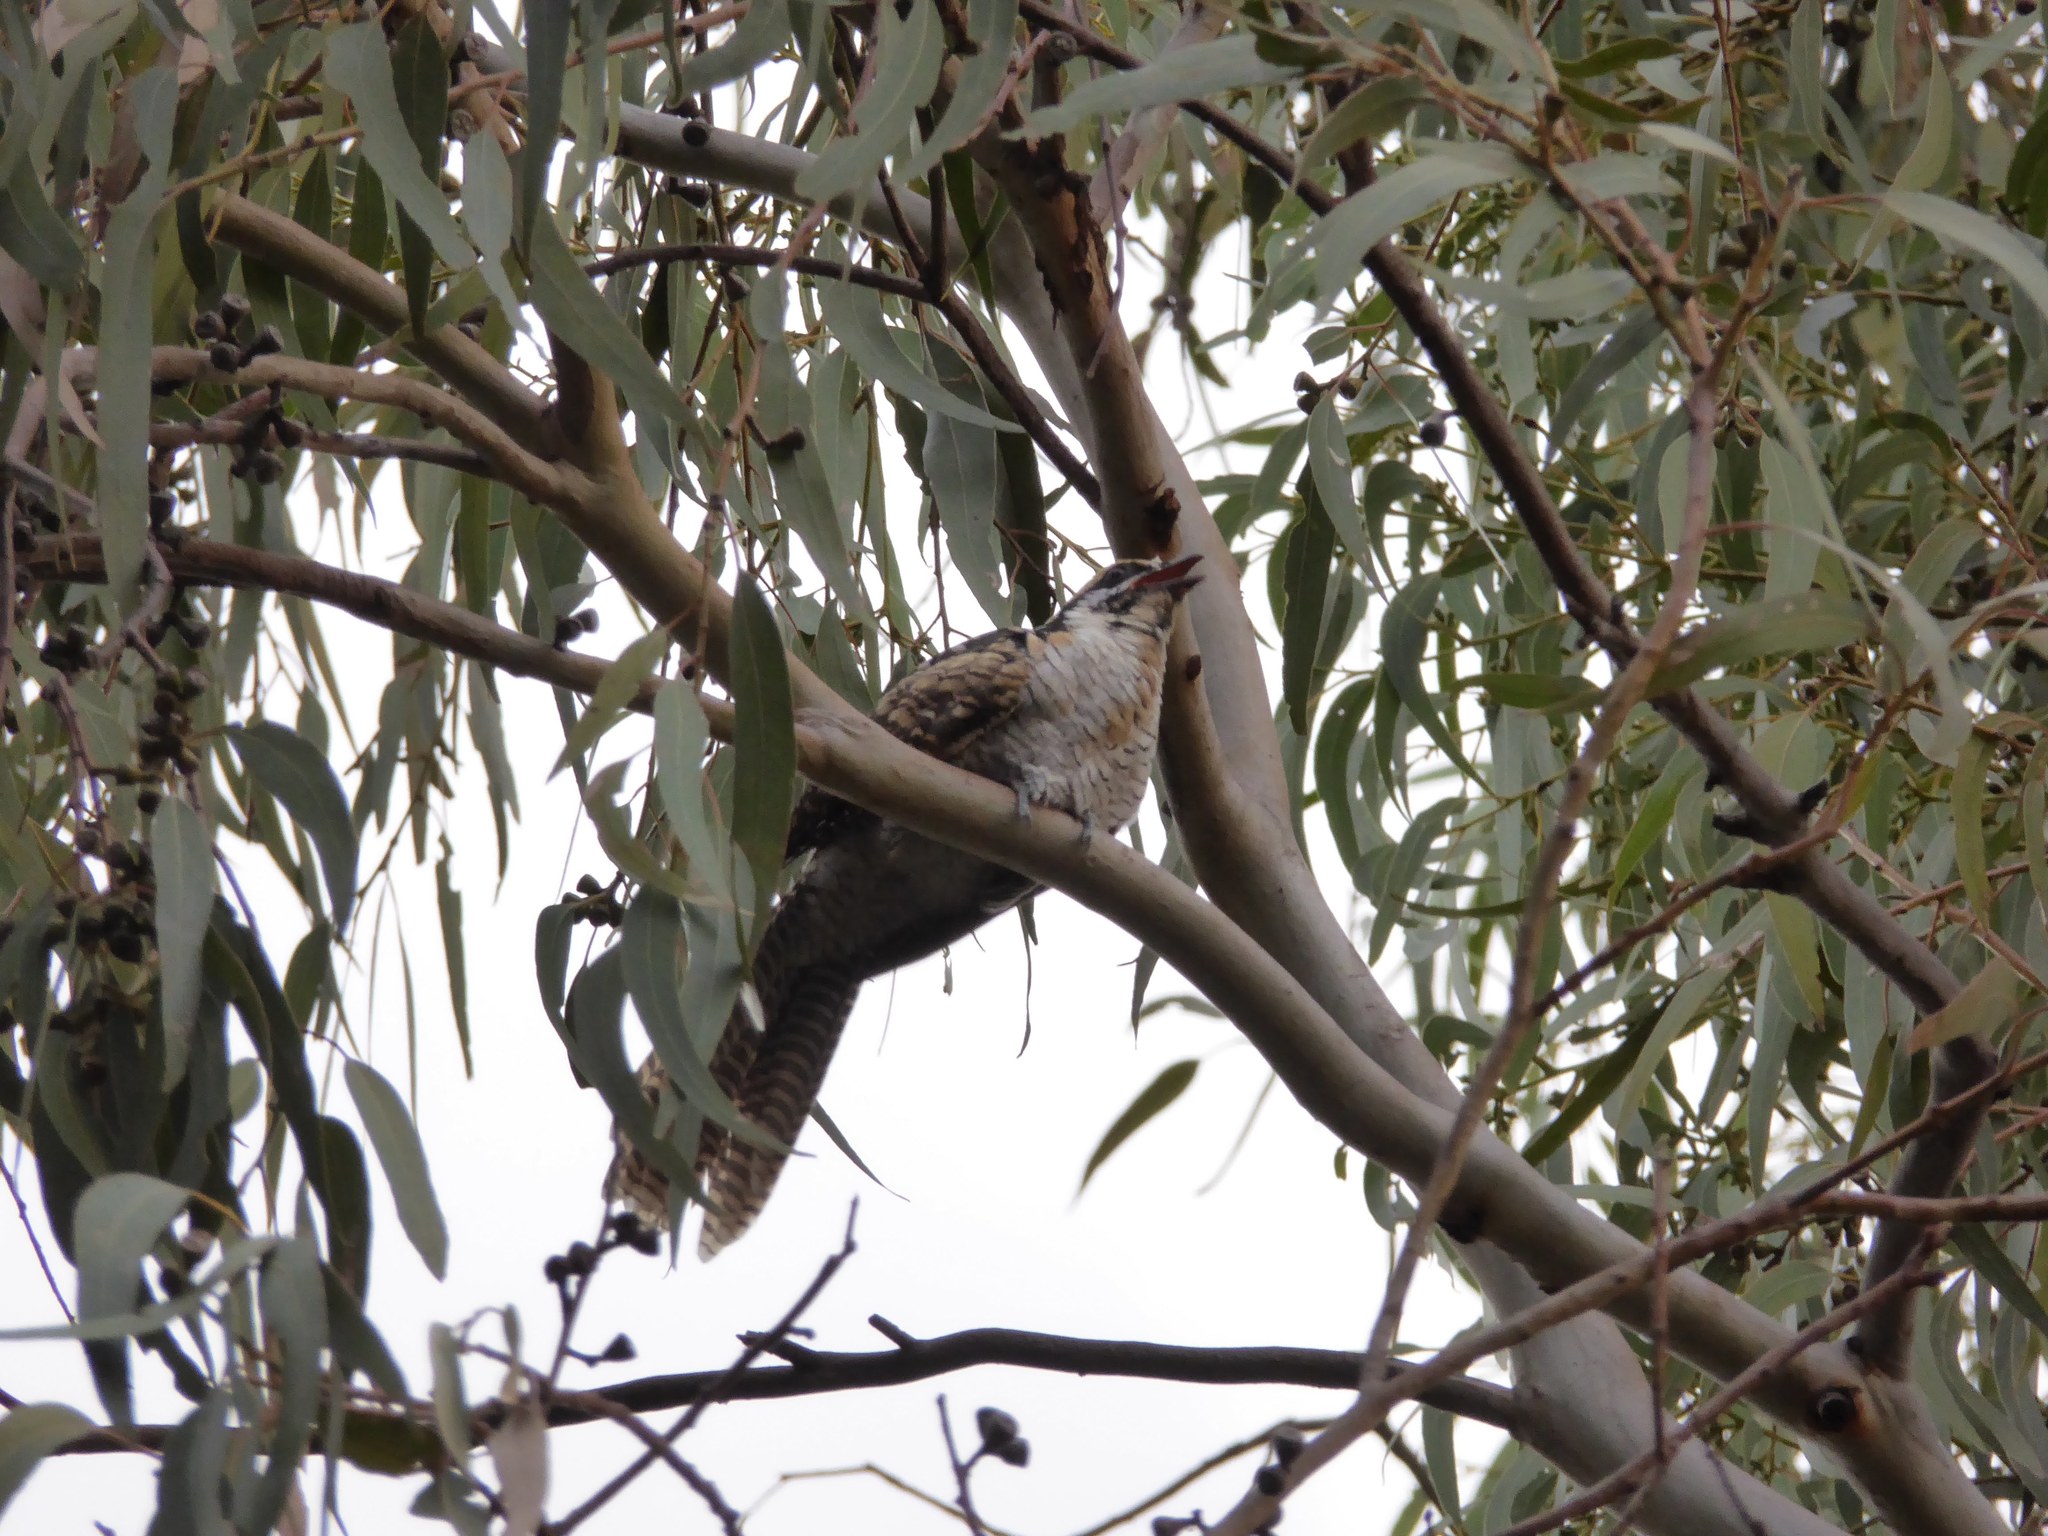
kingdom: Animalia
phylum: Chordata
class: Aves
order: Cuculiformes
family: Cuculidae
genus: Eudynamys
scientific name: Eudynamys orientalis
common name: Pacific koel
